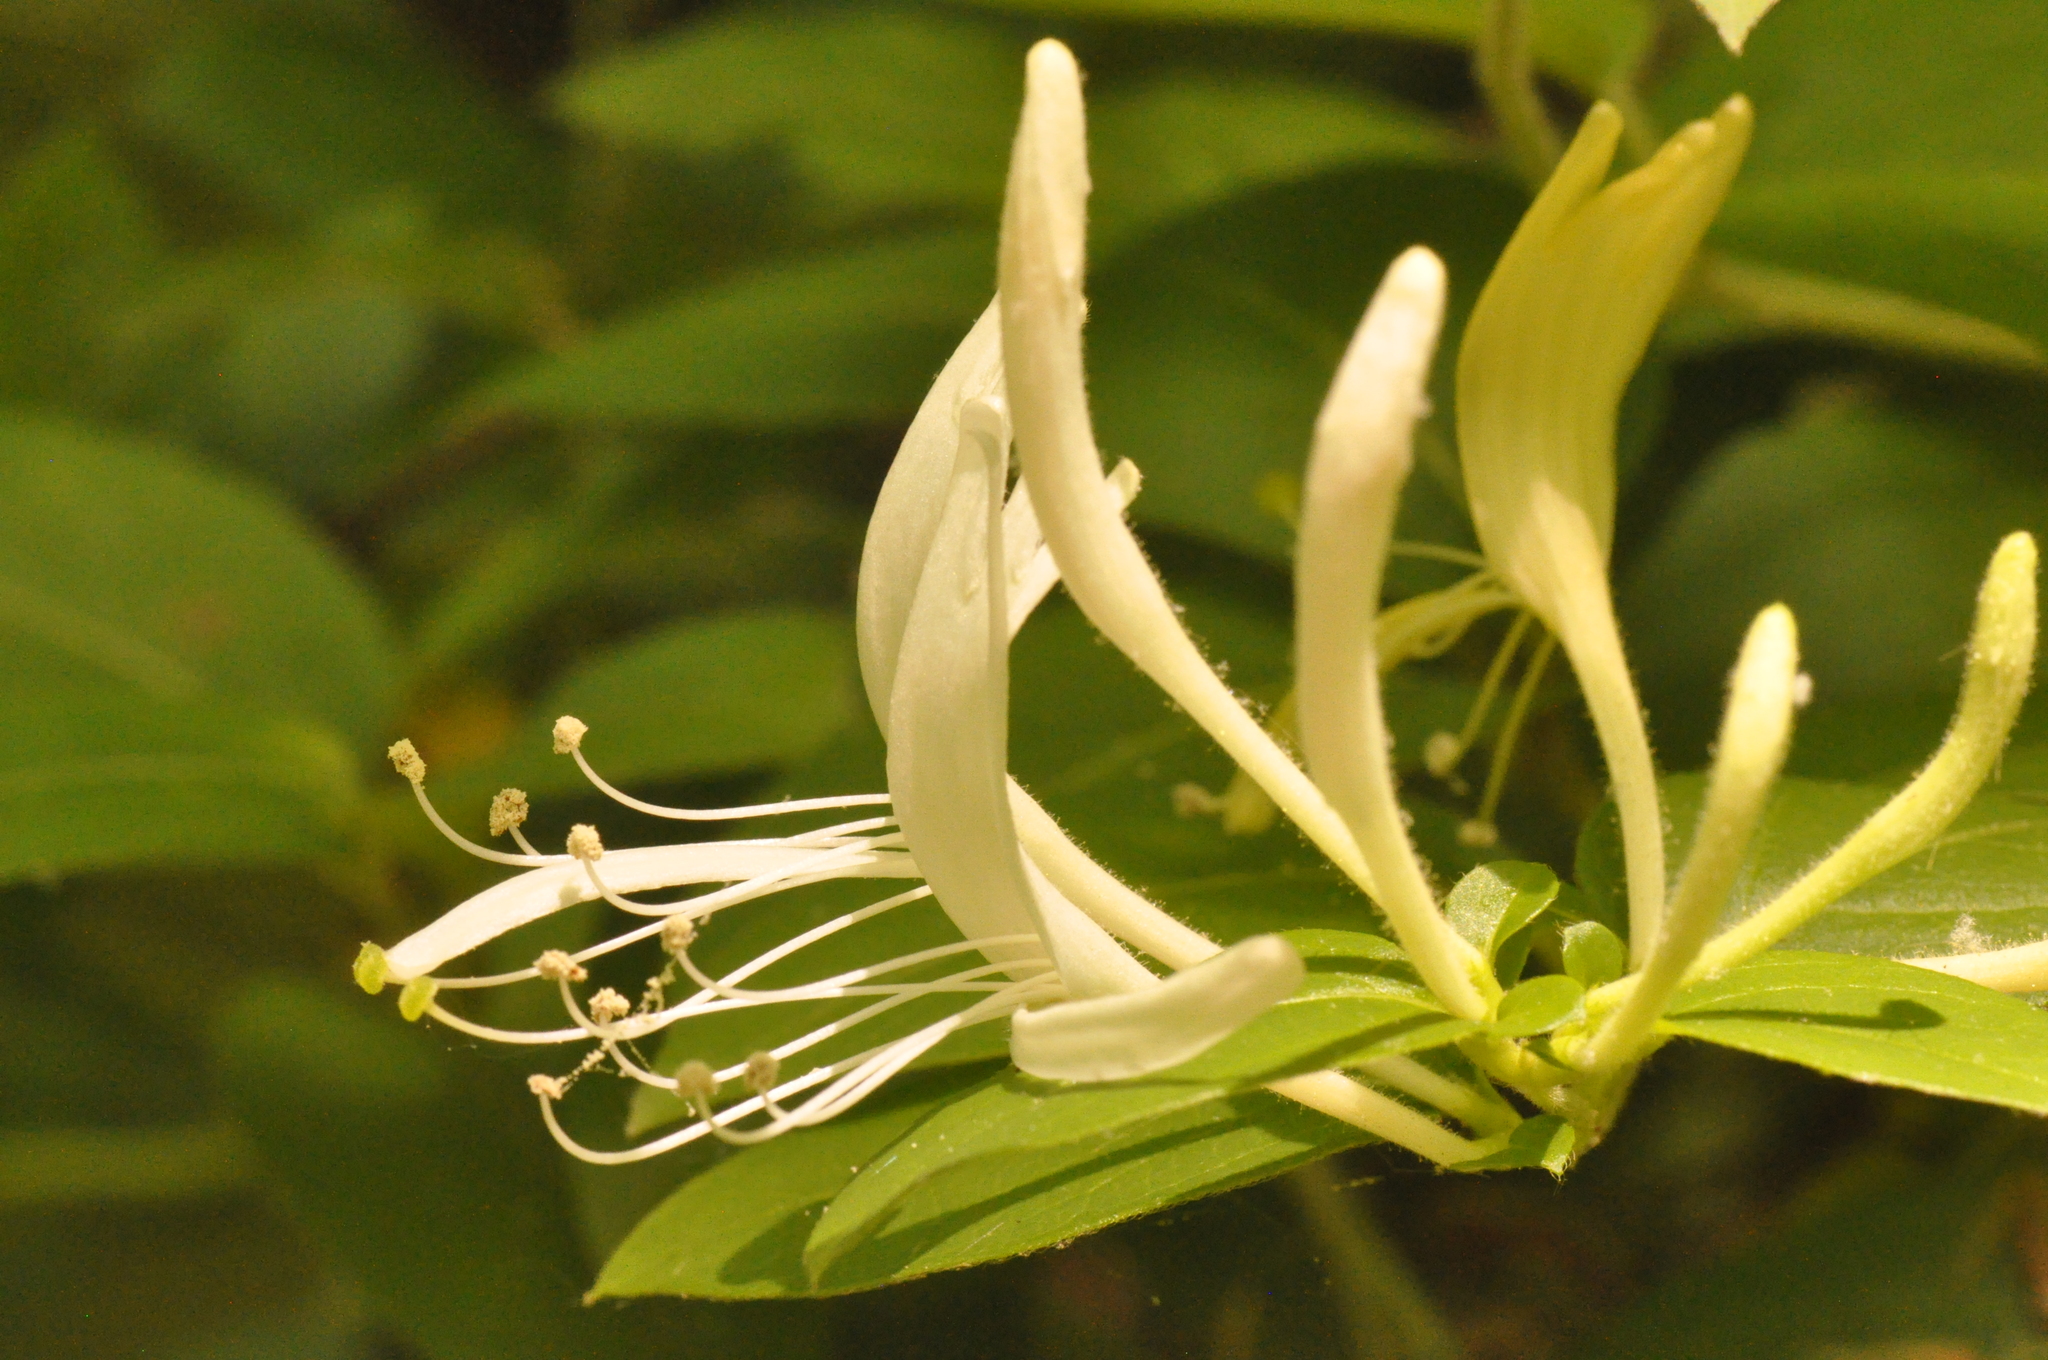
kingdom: Plantae
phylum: Tracheophyta
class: Magnoliopsida
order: Dipsacales
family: Caprifoliaceae
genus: Lonicera
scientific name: Lonicera japonica
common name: Japanese honeysuckle
